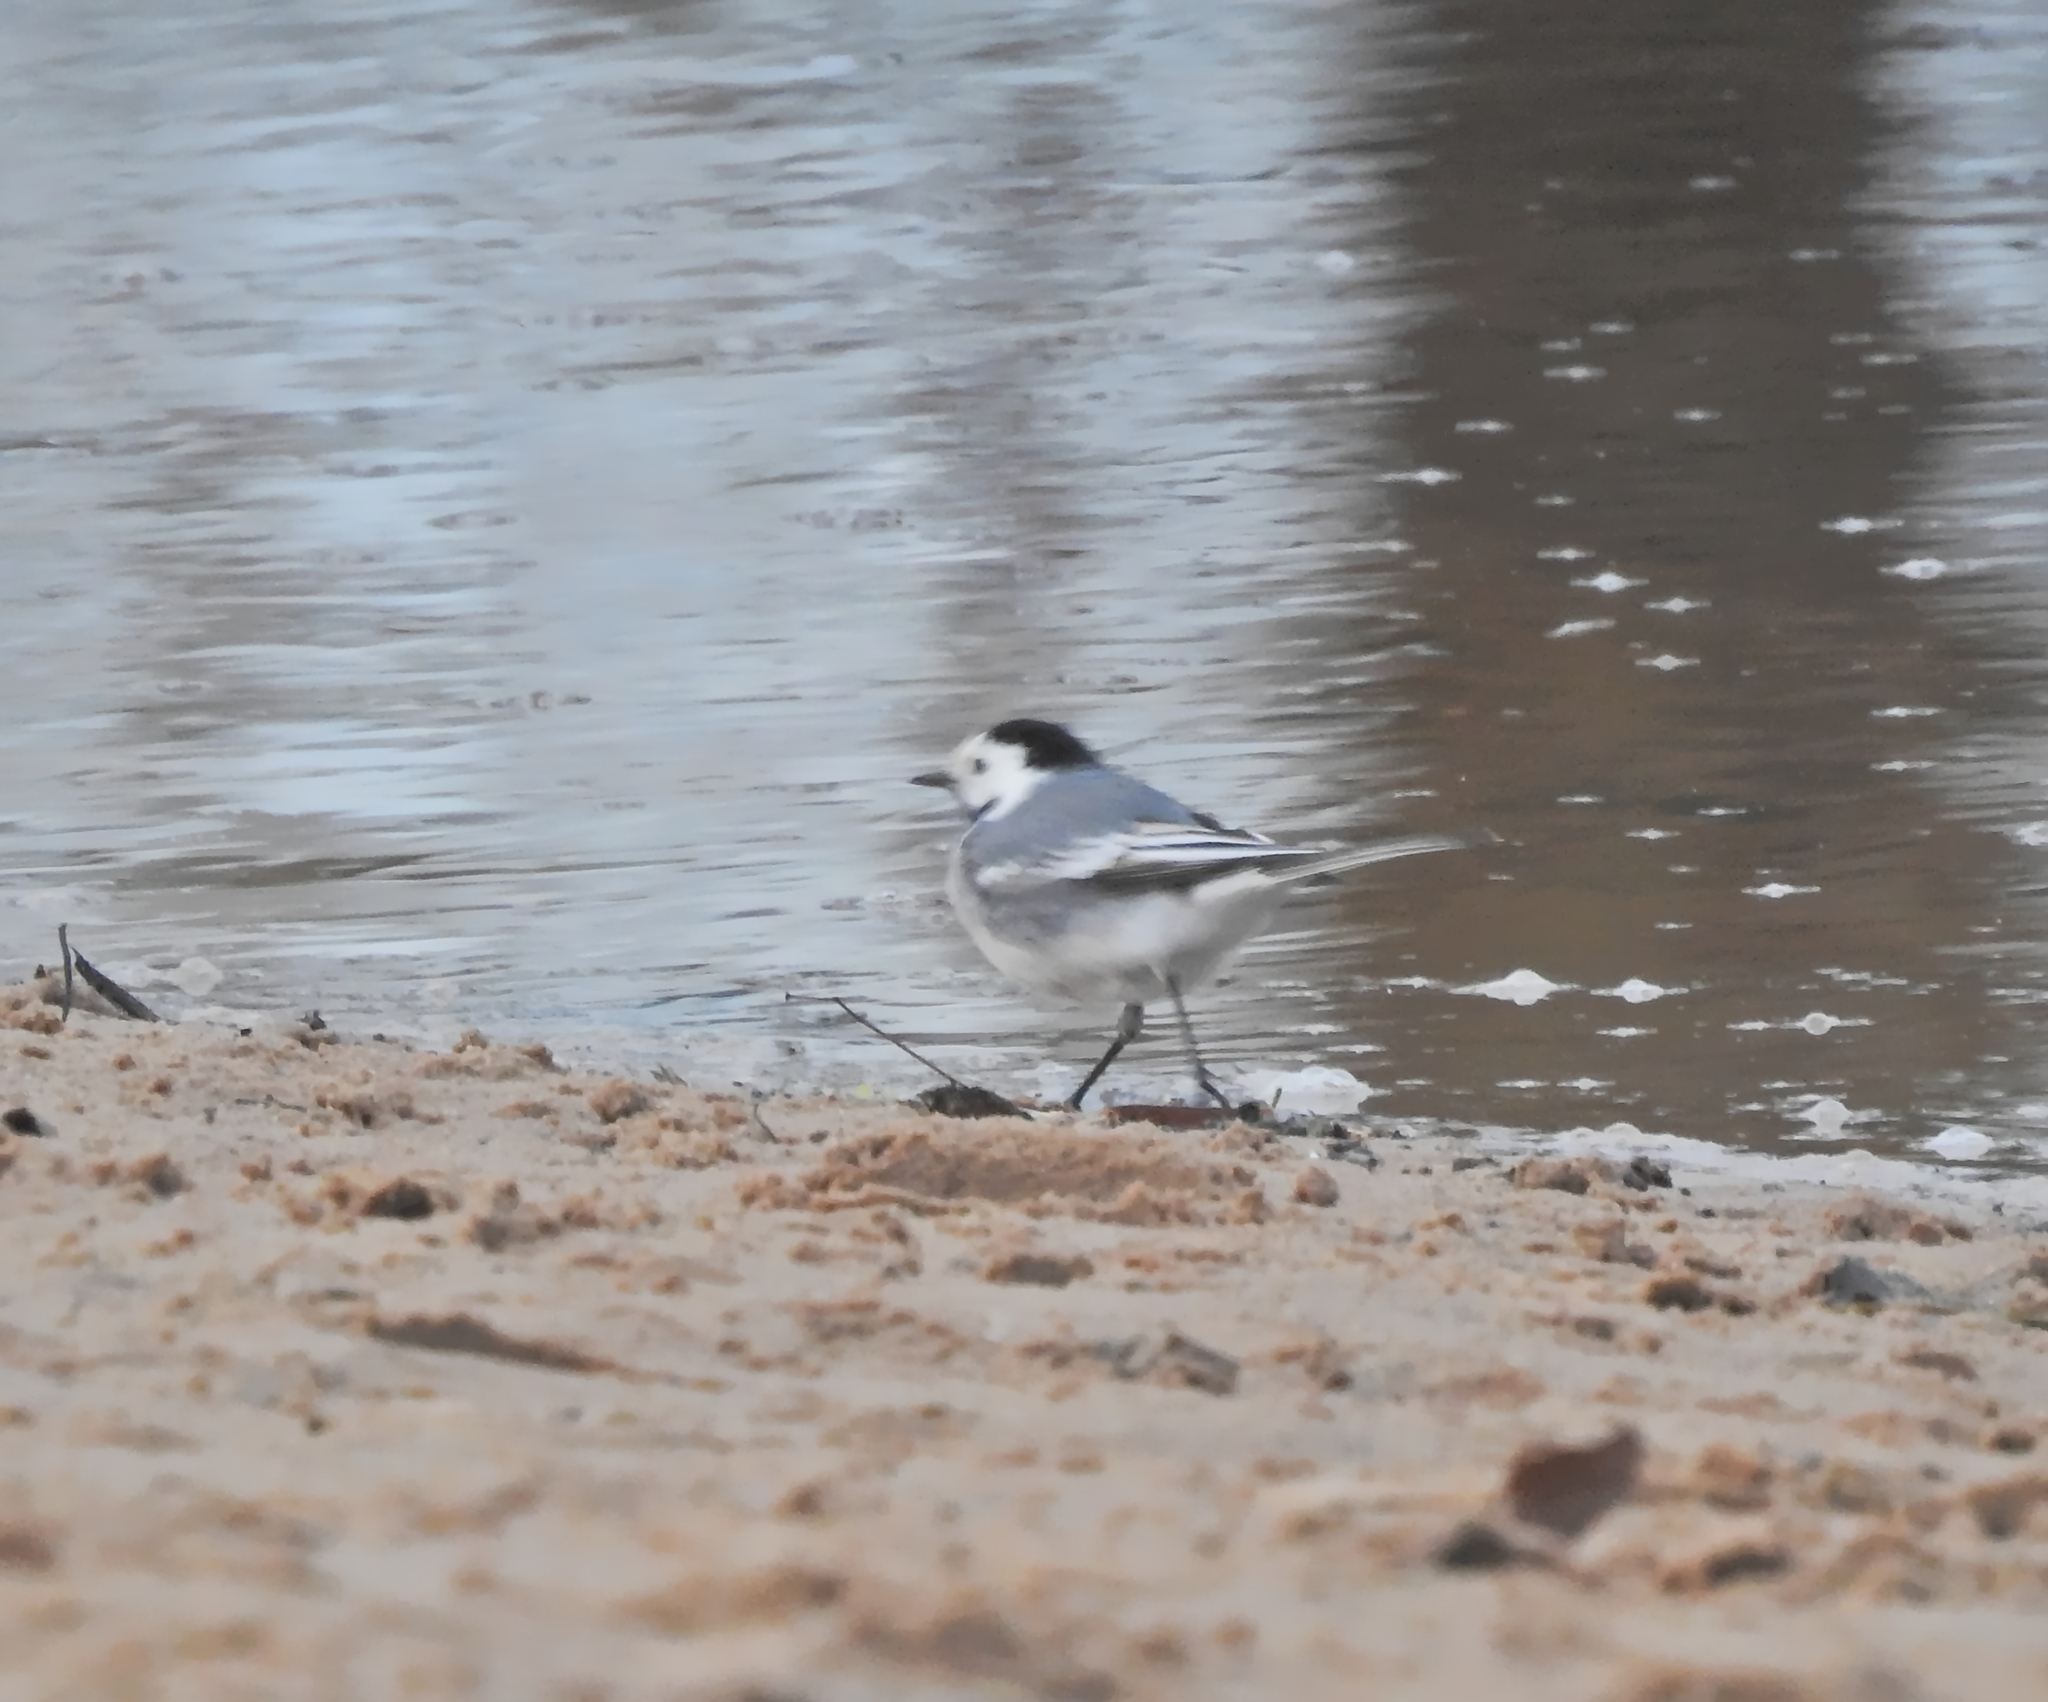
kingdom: Animalia
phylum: Chordata
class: Aves
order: Passeriformes
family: Motacillidae
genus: Motacilla
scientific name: Motacilla alba
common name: White wagtail
